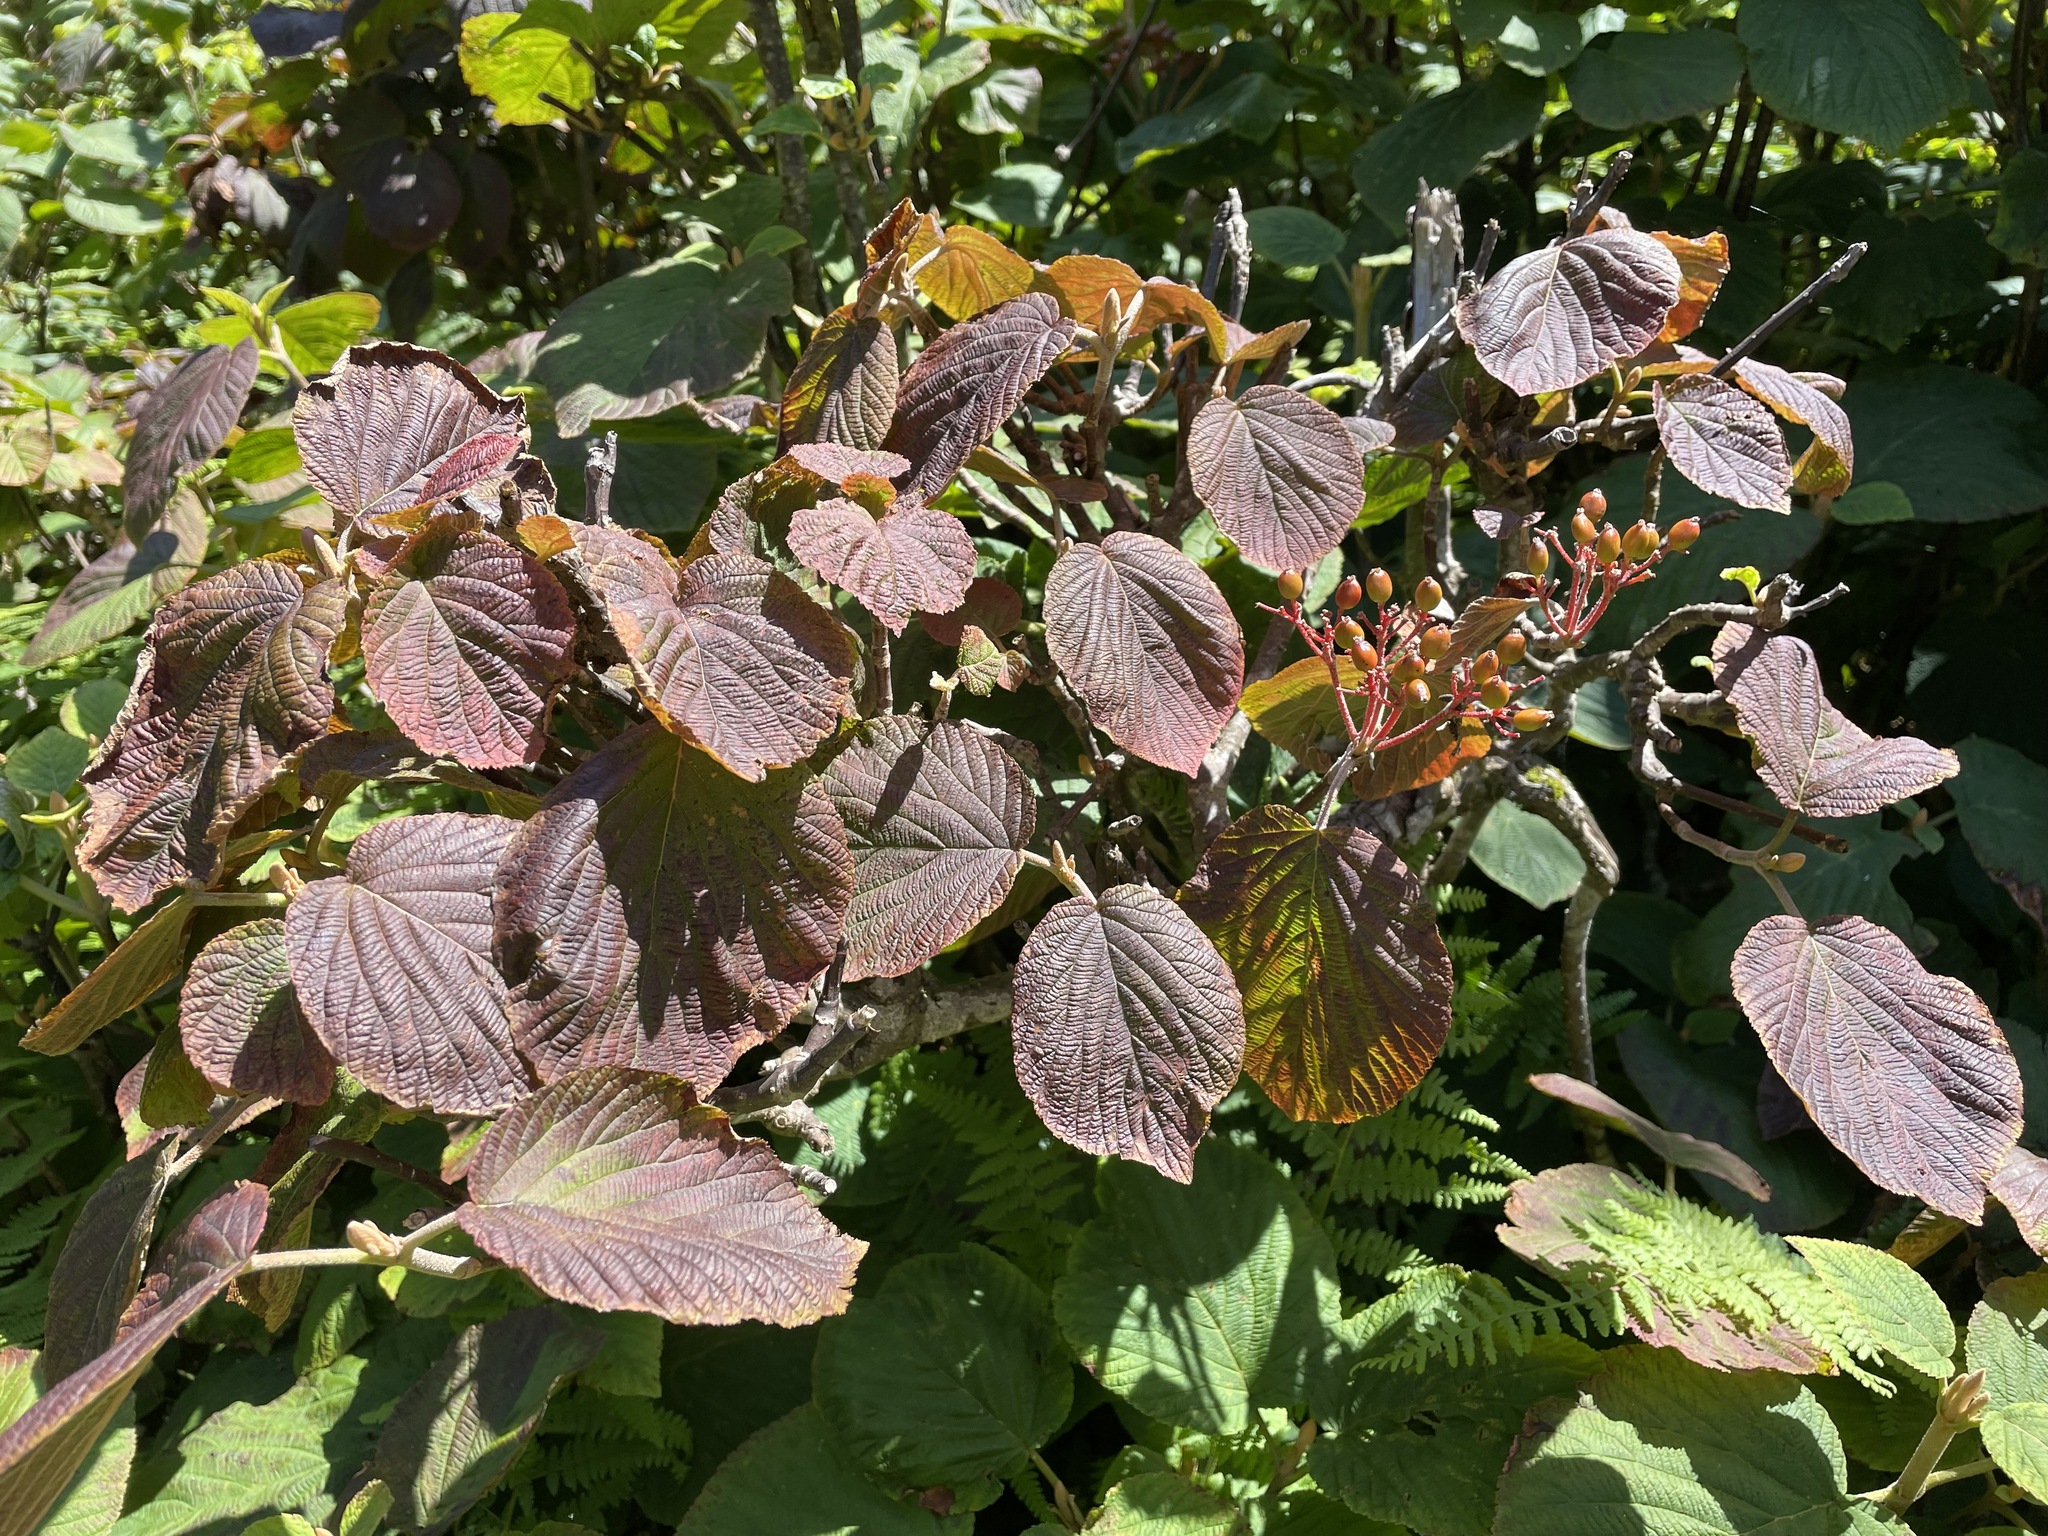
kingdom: Plantae
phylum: Tracheophyta
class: Magnoliopsida
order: Dipsacales
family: Viburnaceae
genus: Viburnum
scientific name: Viburnum lantanoides
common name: Hobblebush
